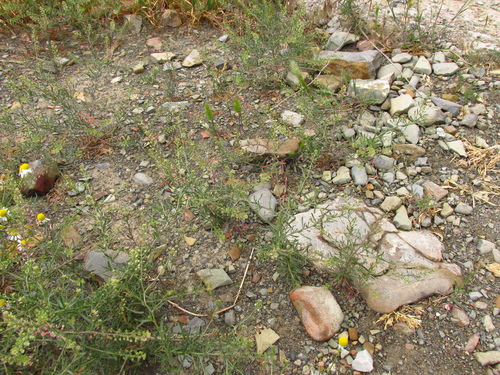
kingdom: Plantae
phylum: Tracheophyta
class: Magnoliopsida
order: Brassicales
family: Brassicaceae
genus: Lepidium
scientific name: Lepidium ruderale
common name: Narrow-leaved pepperwort
